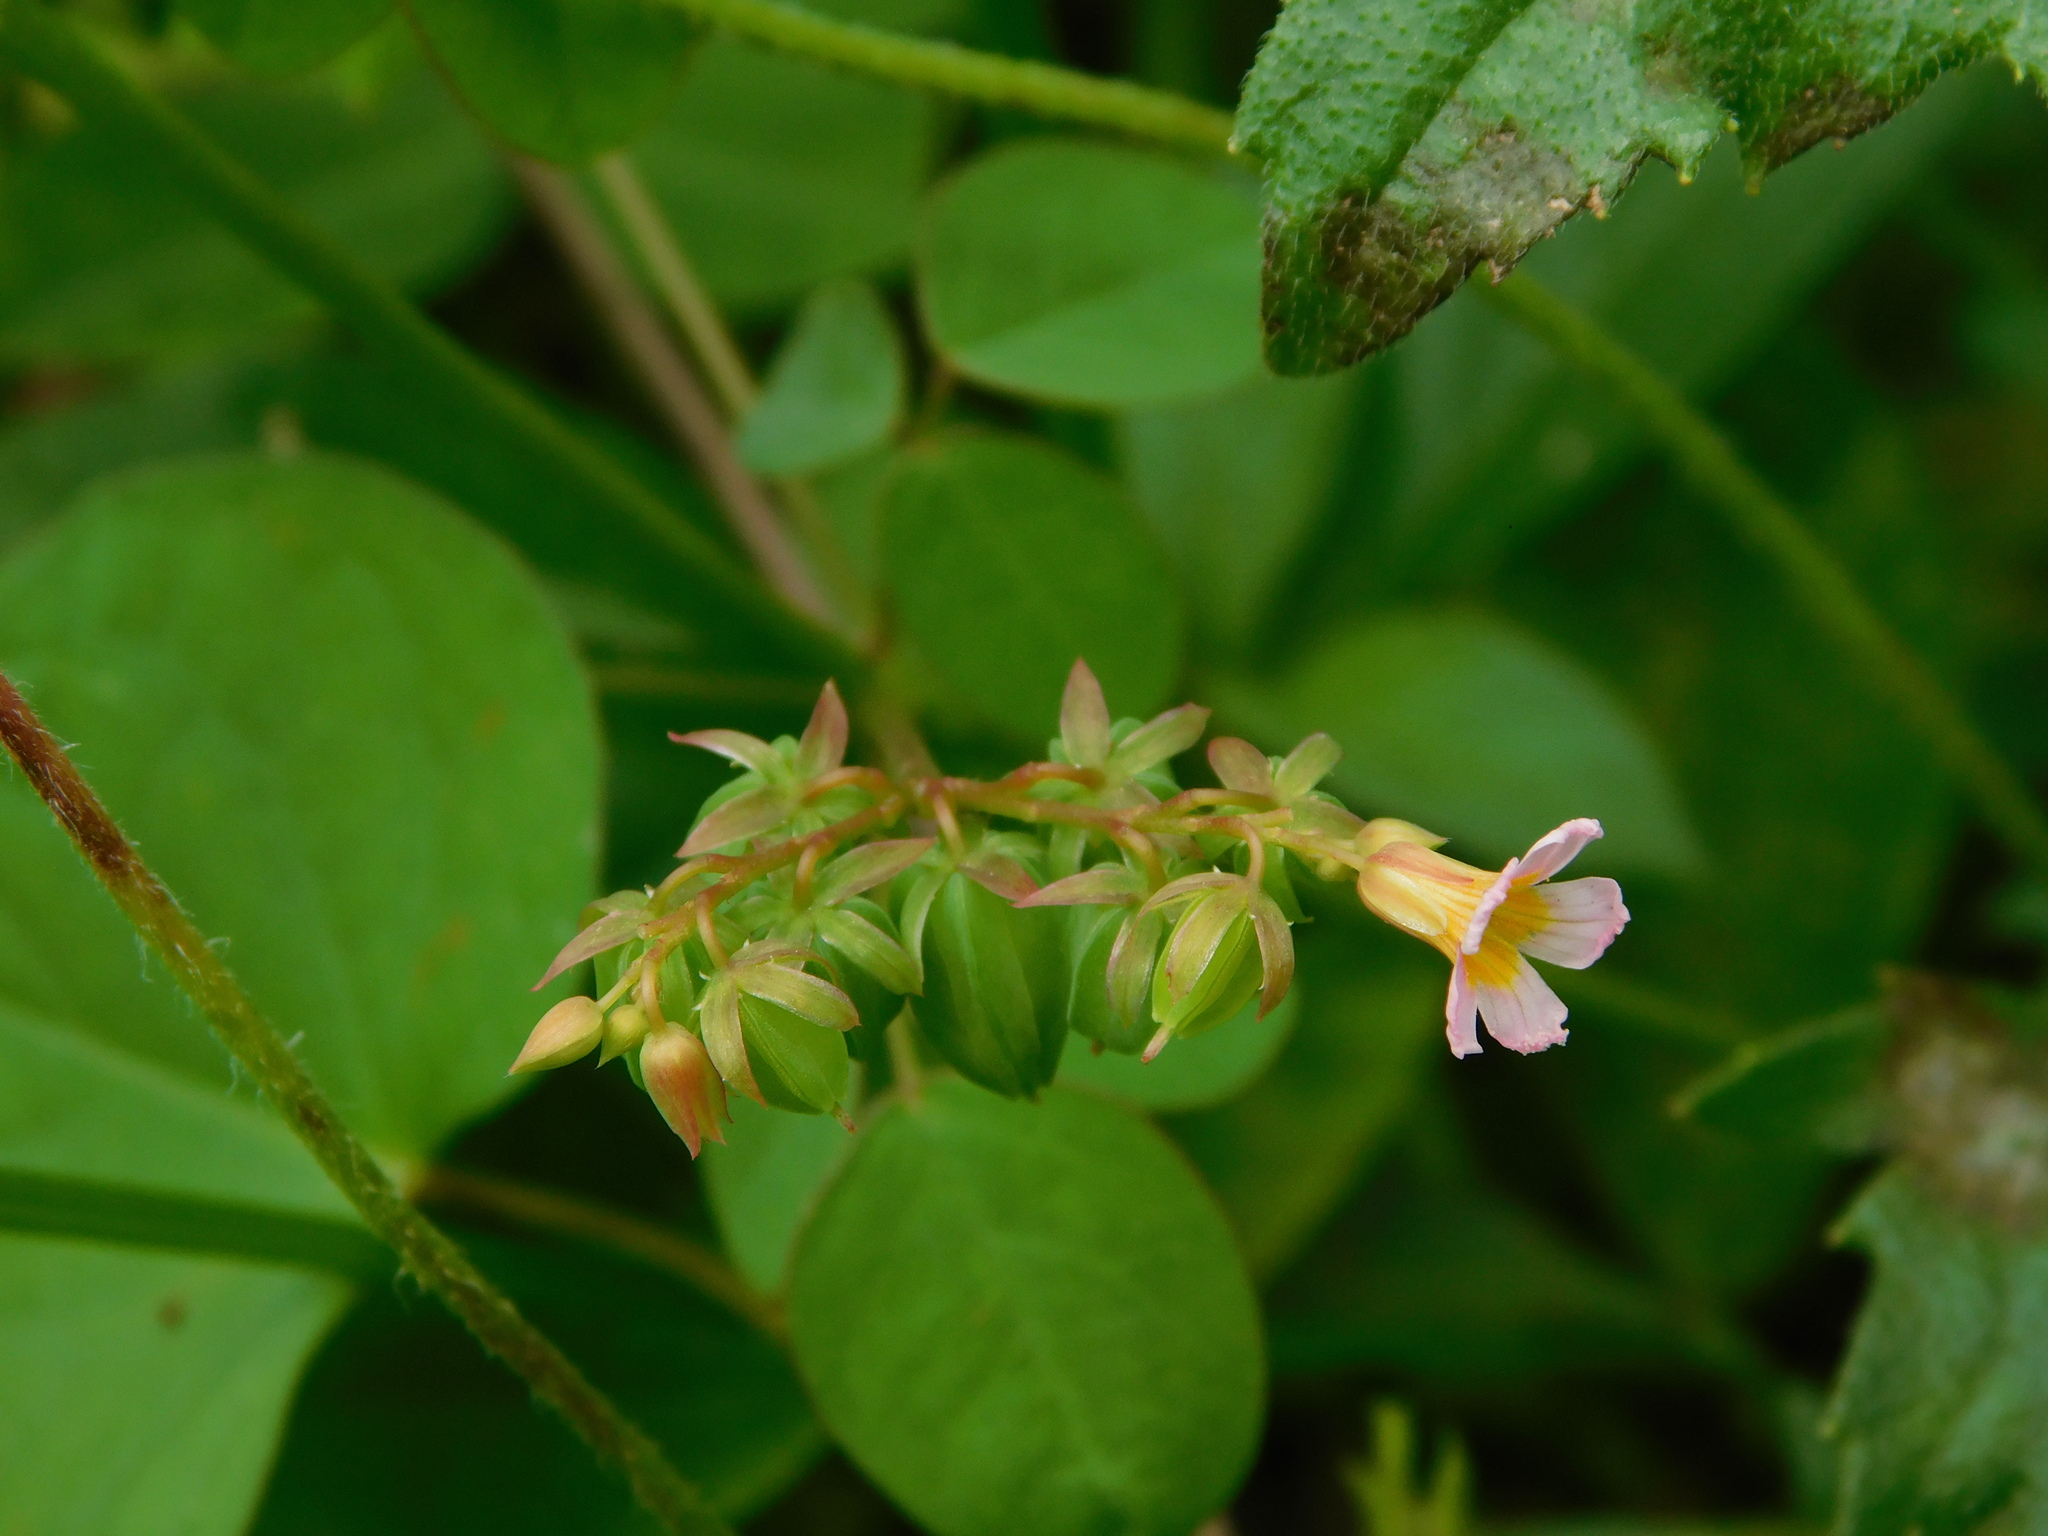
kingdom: Plantae
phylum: Tracheophyta
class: Magnoliopsida
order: Oxalidales
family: Oxalidaceae
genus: Oxalis
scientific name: Oxalis barrelieri
